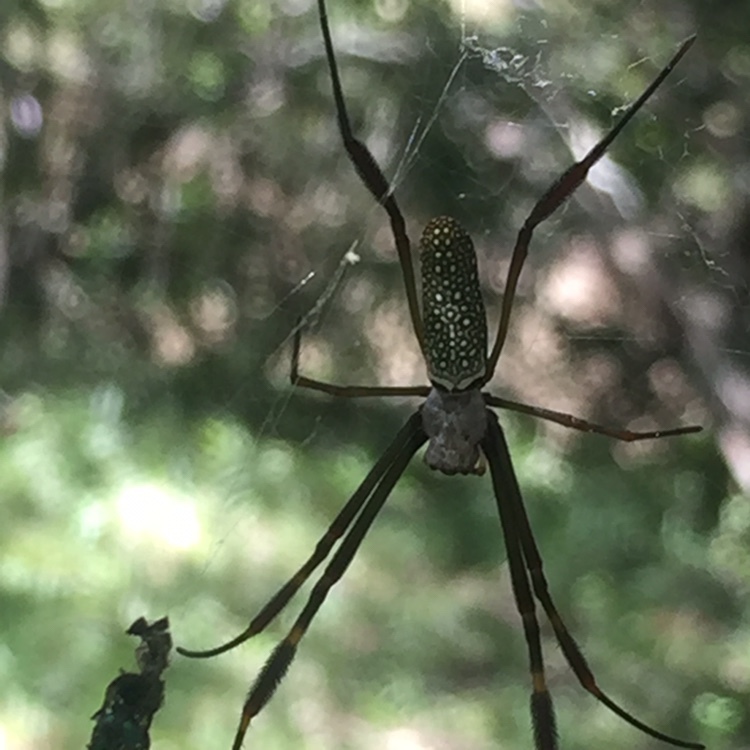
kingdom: Animalia
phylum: Arthropoda
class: Arachnida
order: Araneae
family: Araneidae
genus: Trichonephila
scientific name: Trichonephila clavipes
